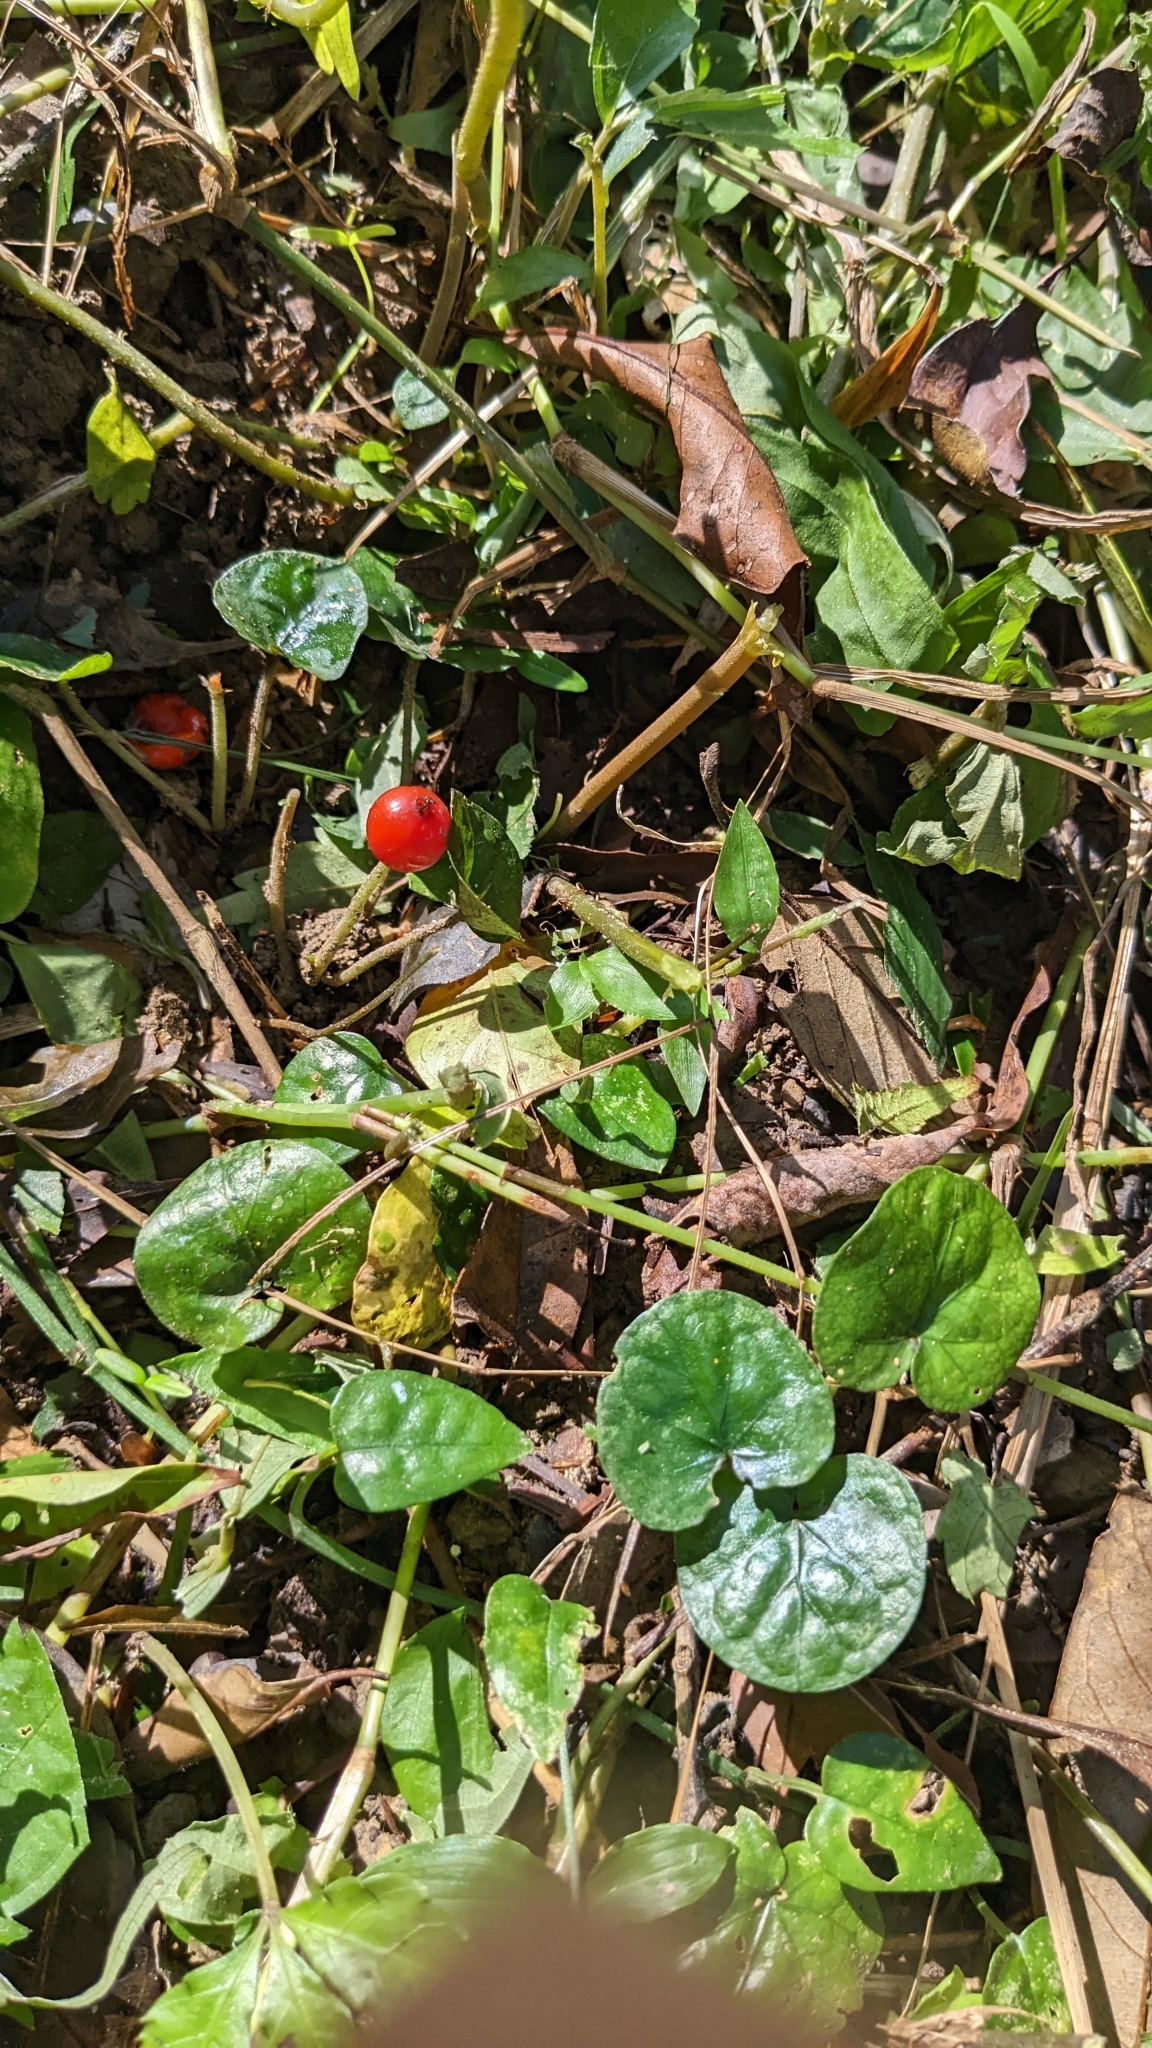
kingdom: Plantae
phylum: Tracheophyta
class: Magnoliopsida
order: Gentianales
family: Rubiaceae
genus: Geophila
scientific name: Geophila herbacea
